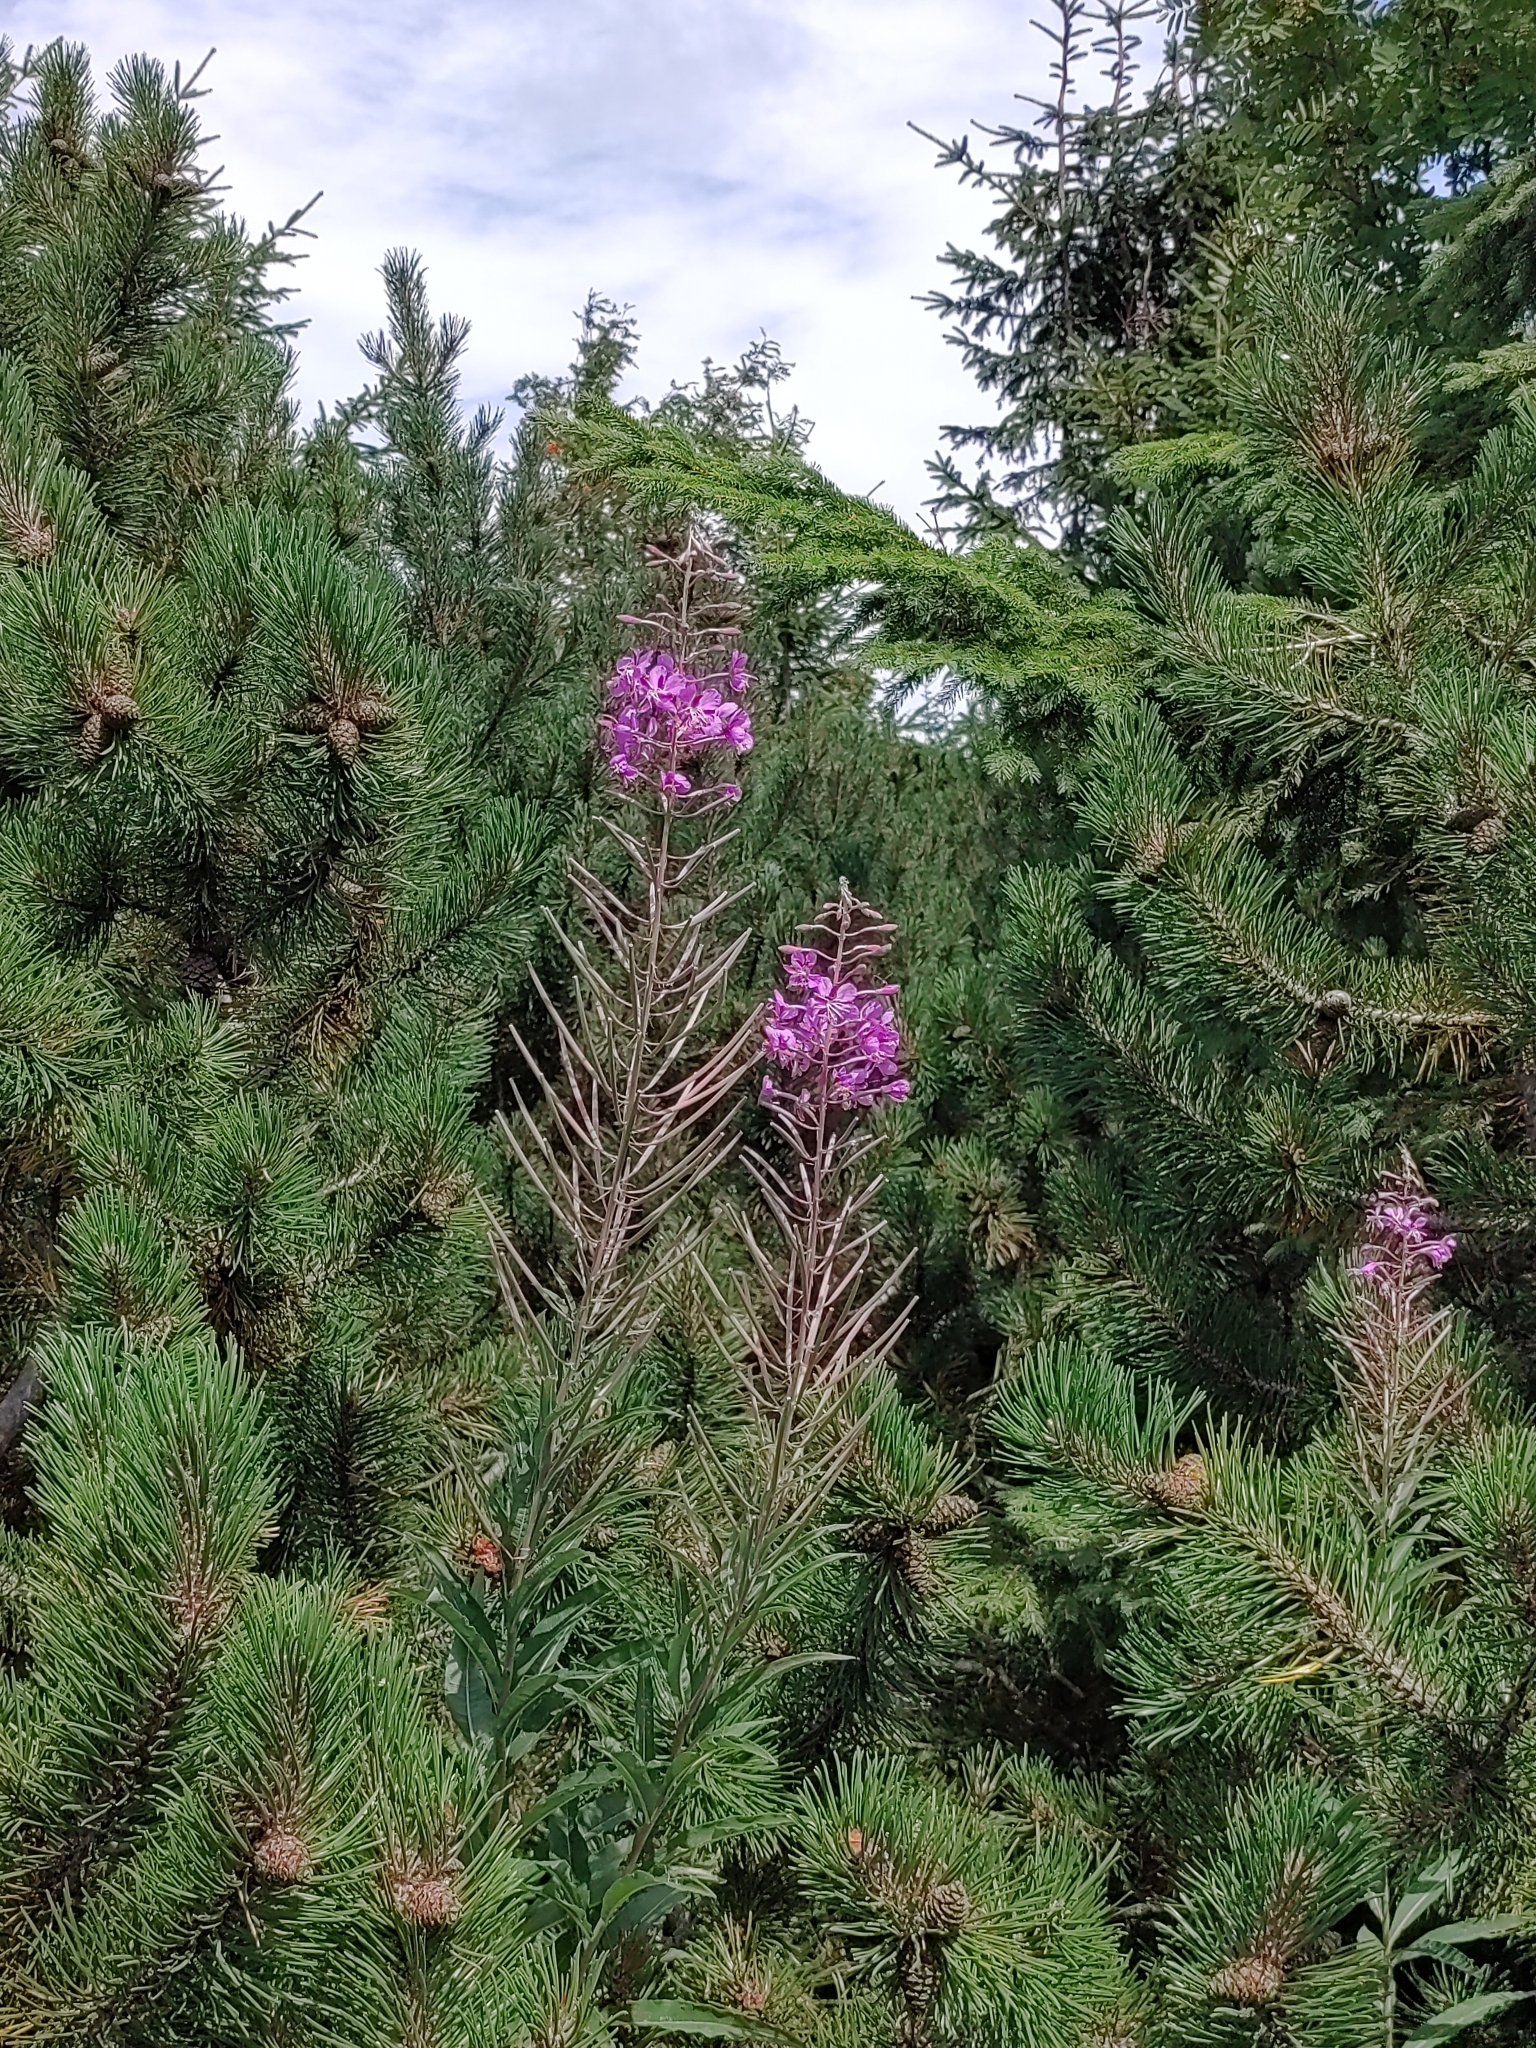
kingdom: Plantae
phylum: Tracheophyta
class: Magnoliopsida
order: Myrtales
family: Onagraceae
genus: Chamaenerion
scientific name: Chamaenerion angustifolium
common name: Fireweed
